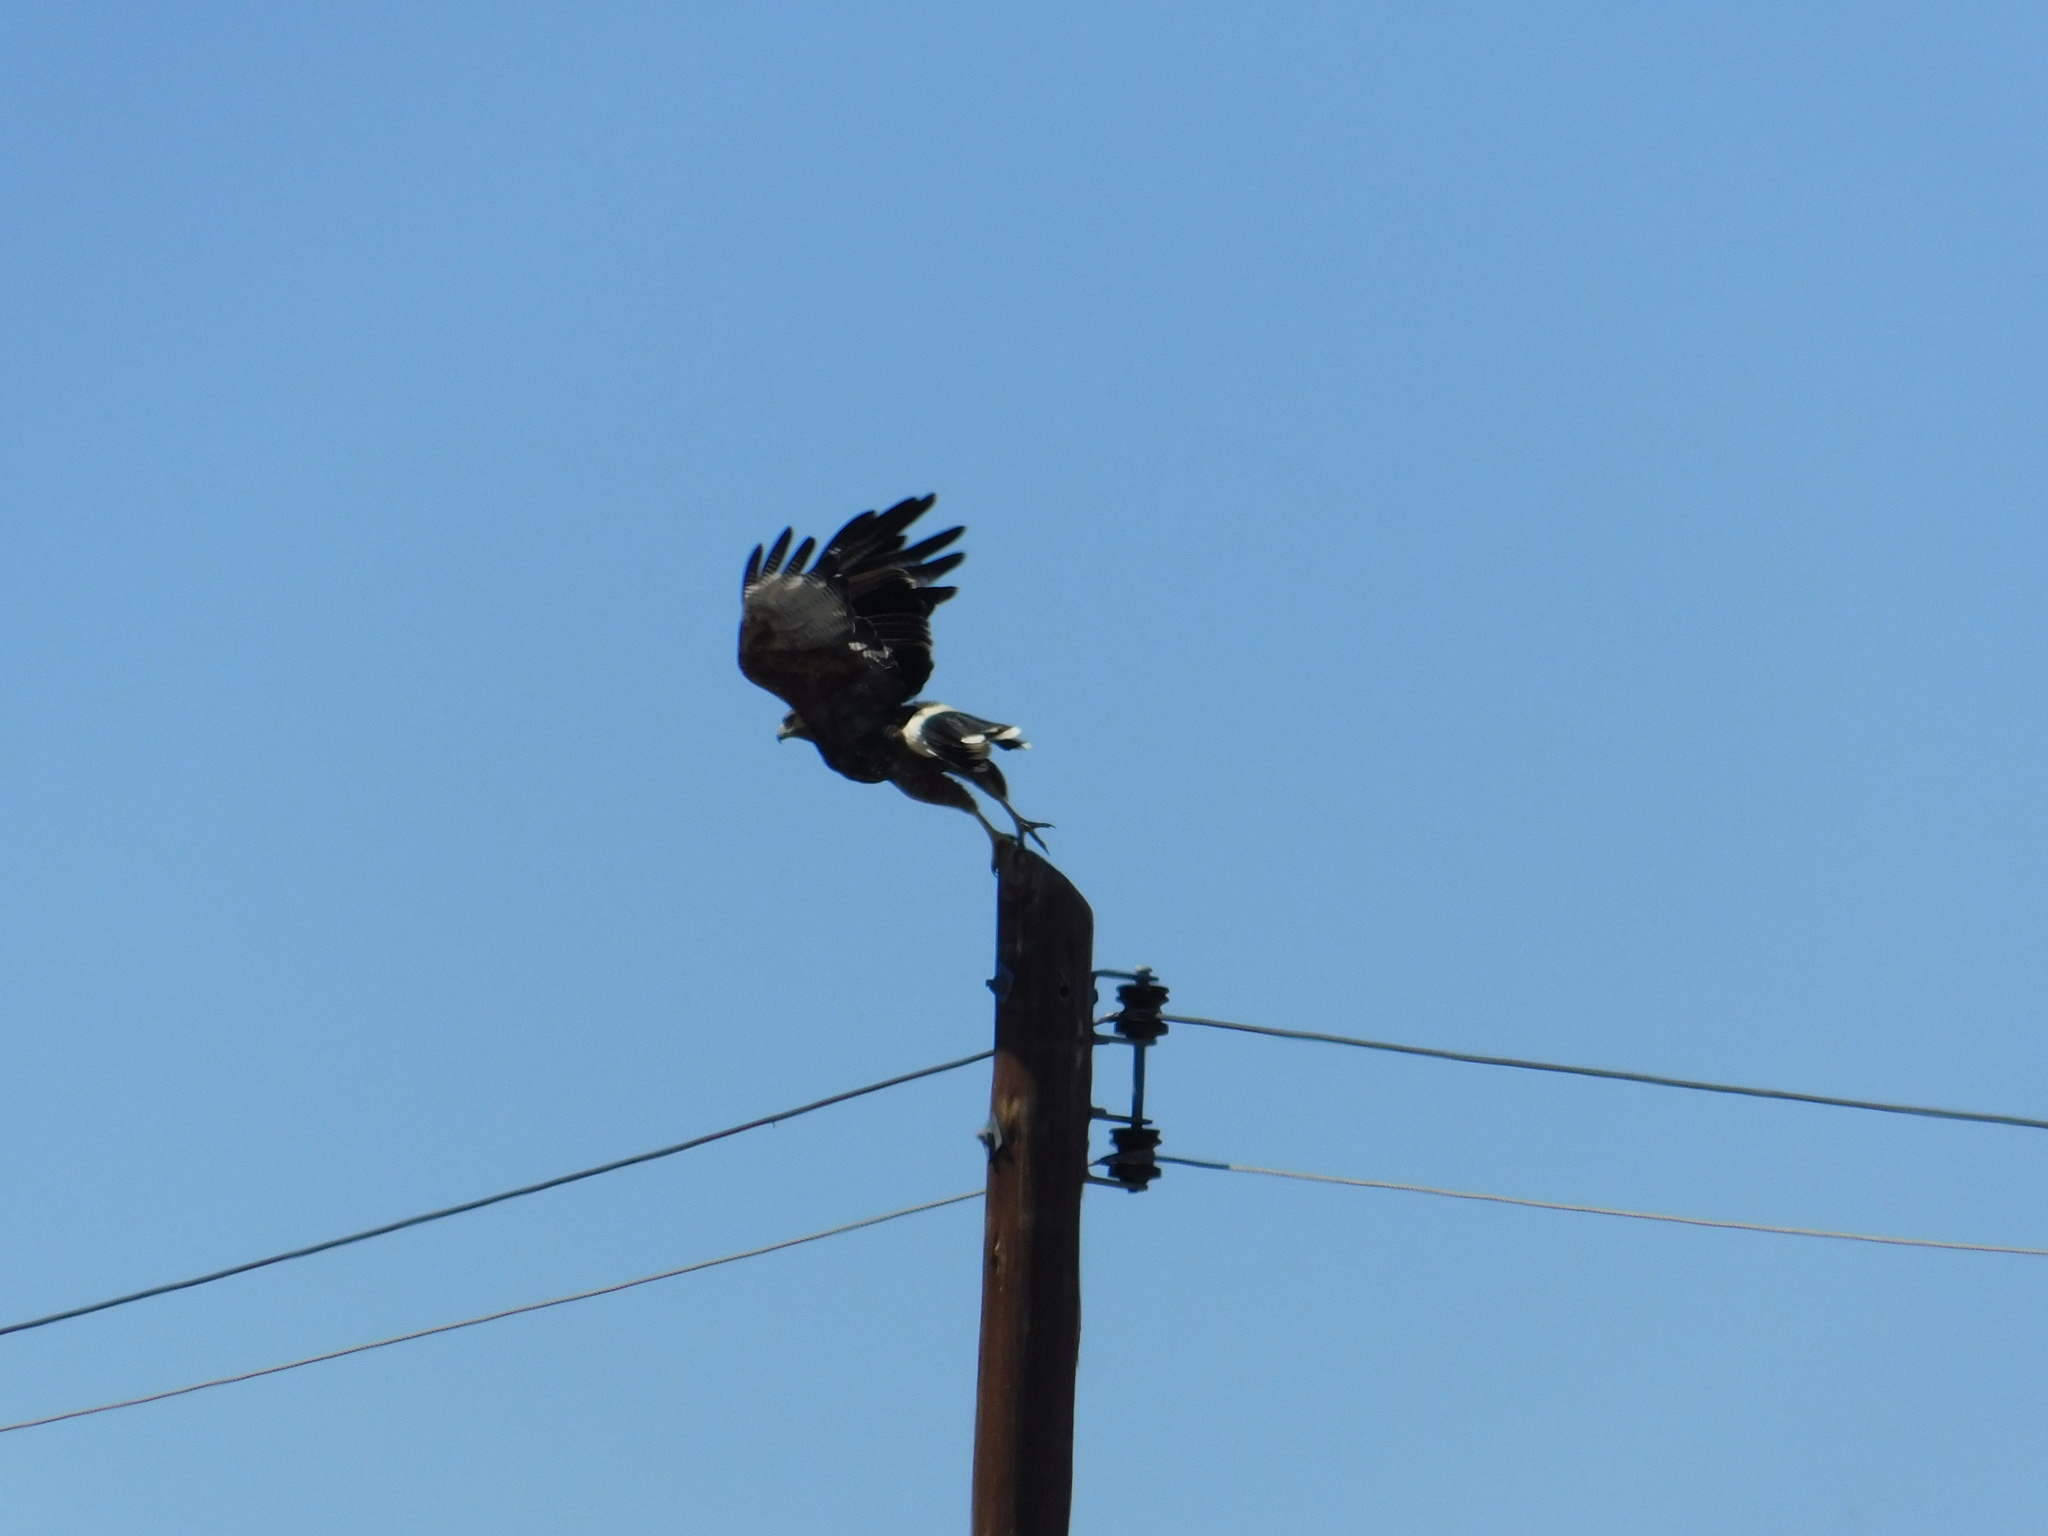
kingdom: Animalia
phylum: Chordata
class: Aves
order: Accipitriformes
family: Accipitridae
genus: Parabuteo
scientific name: Parabuteo unicinctus
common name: Harris's hawk
